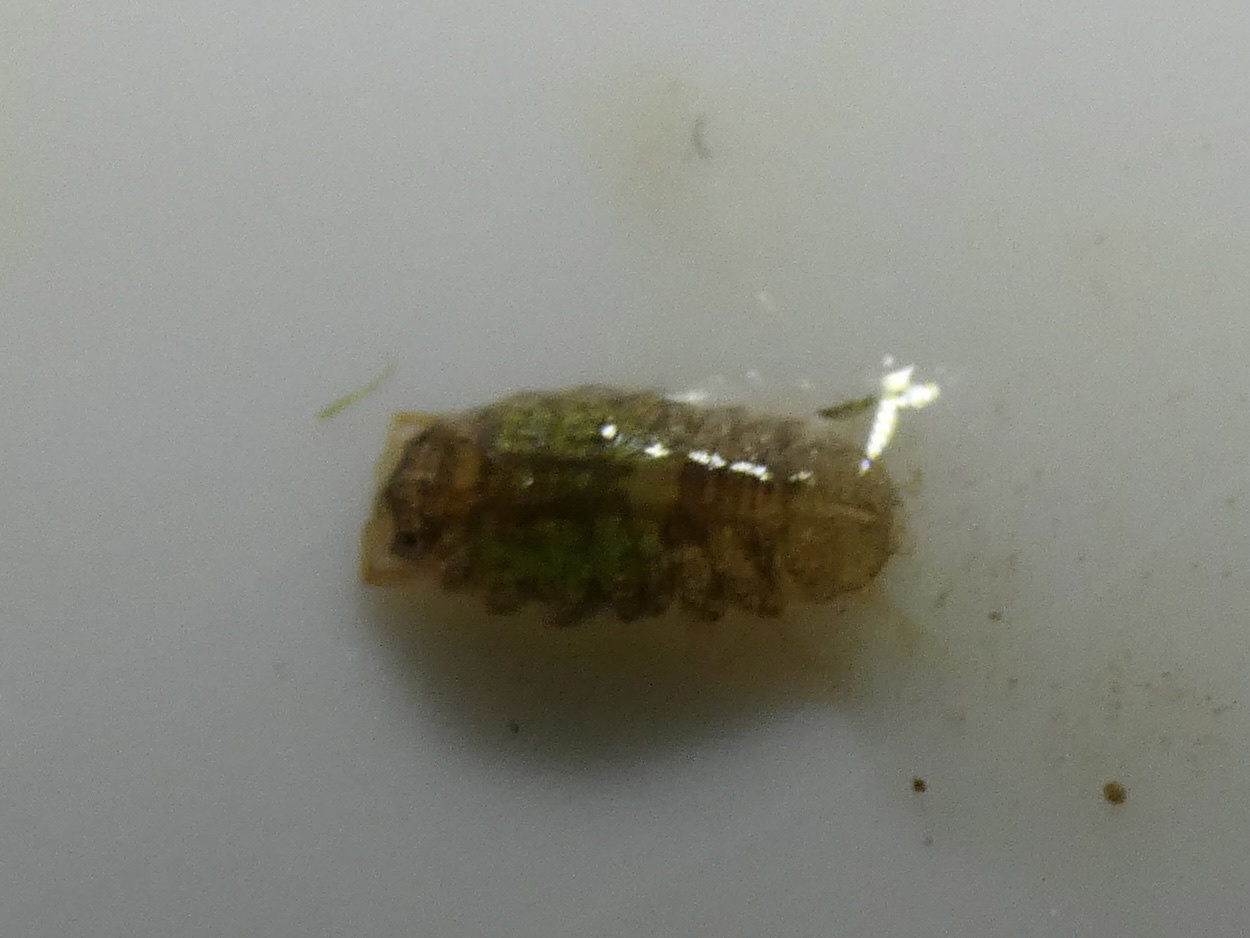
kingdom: Animalia
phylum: Arthropoda
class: Malacostraca
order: Isopoda
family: Janiridae
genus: Jaera
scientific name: Jaera
